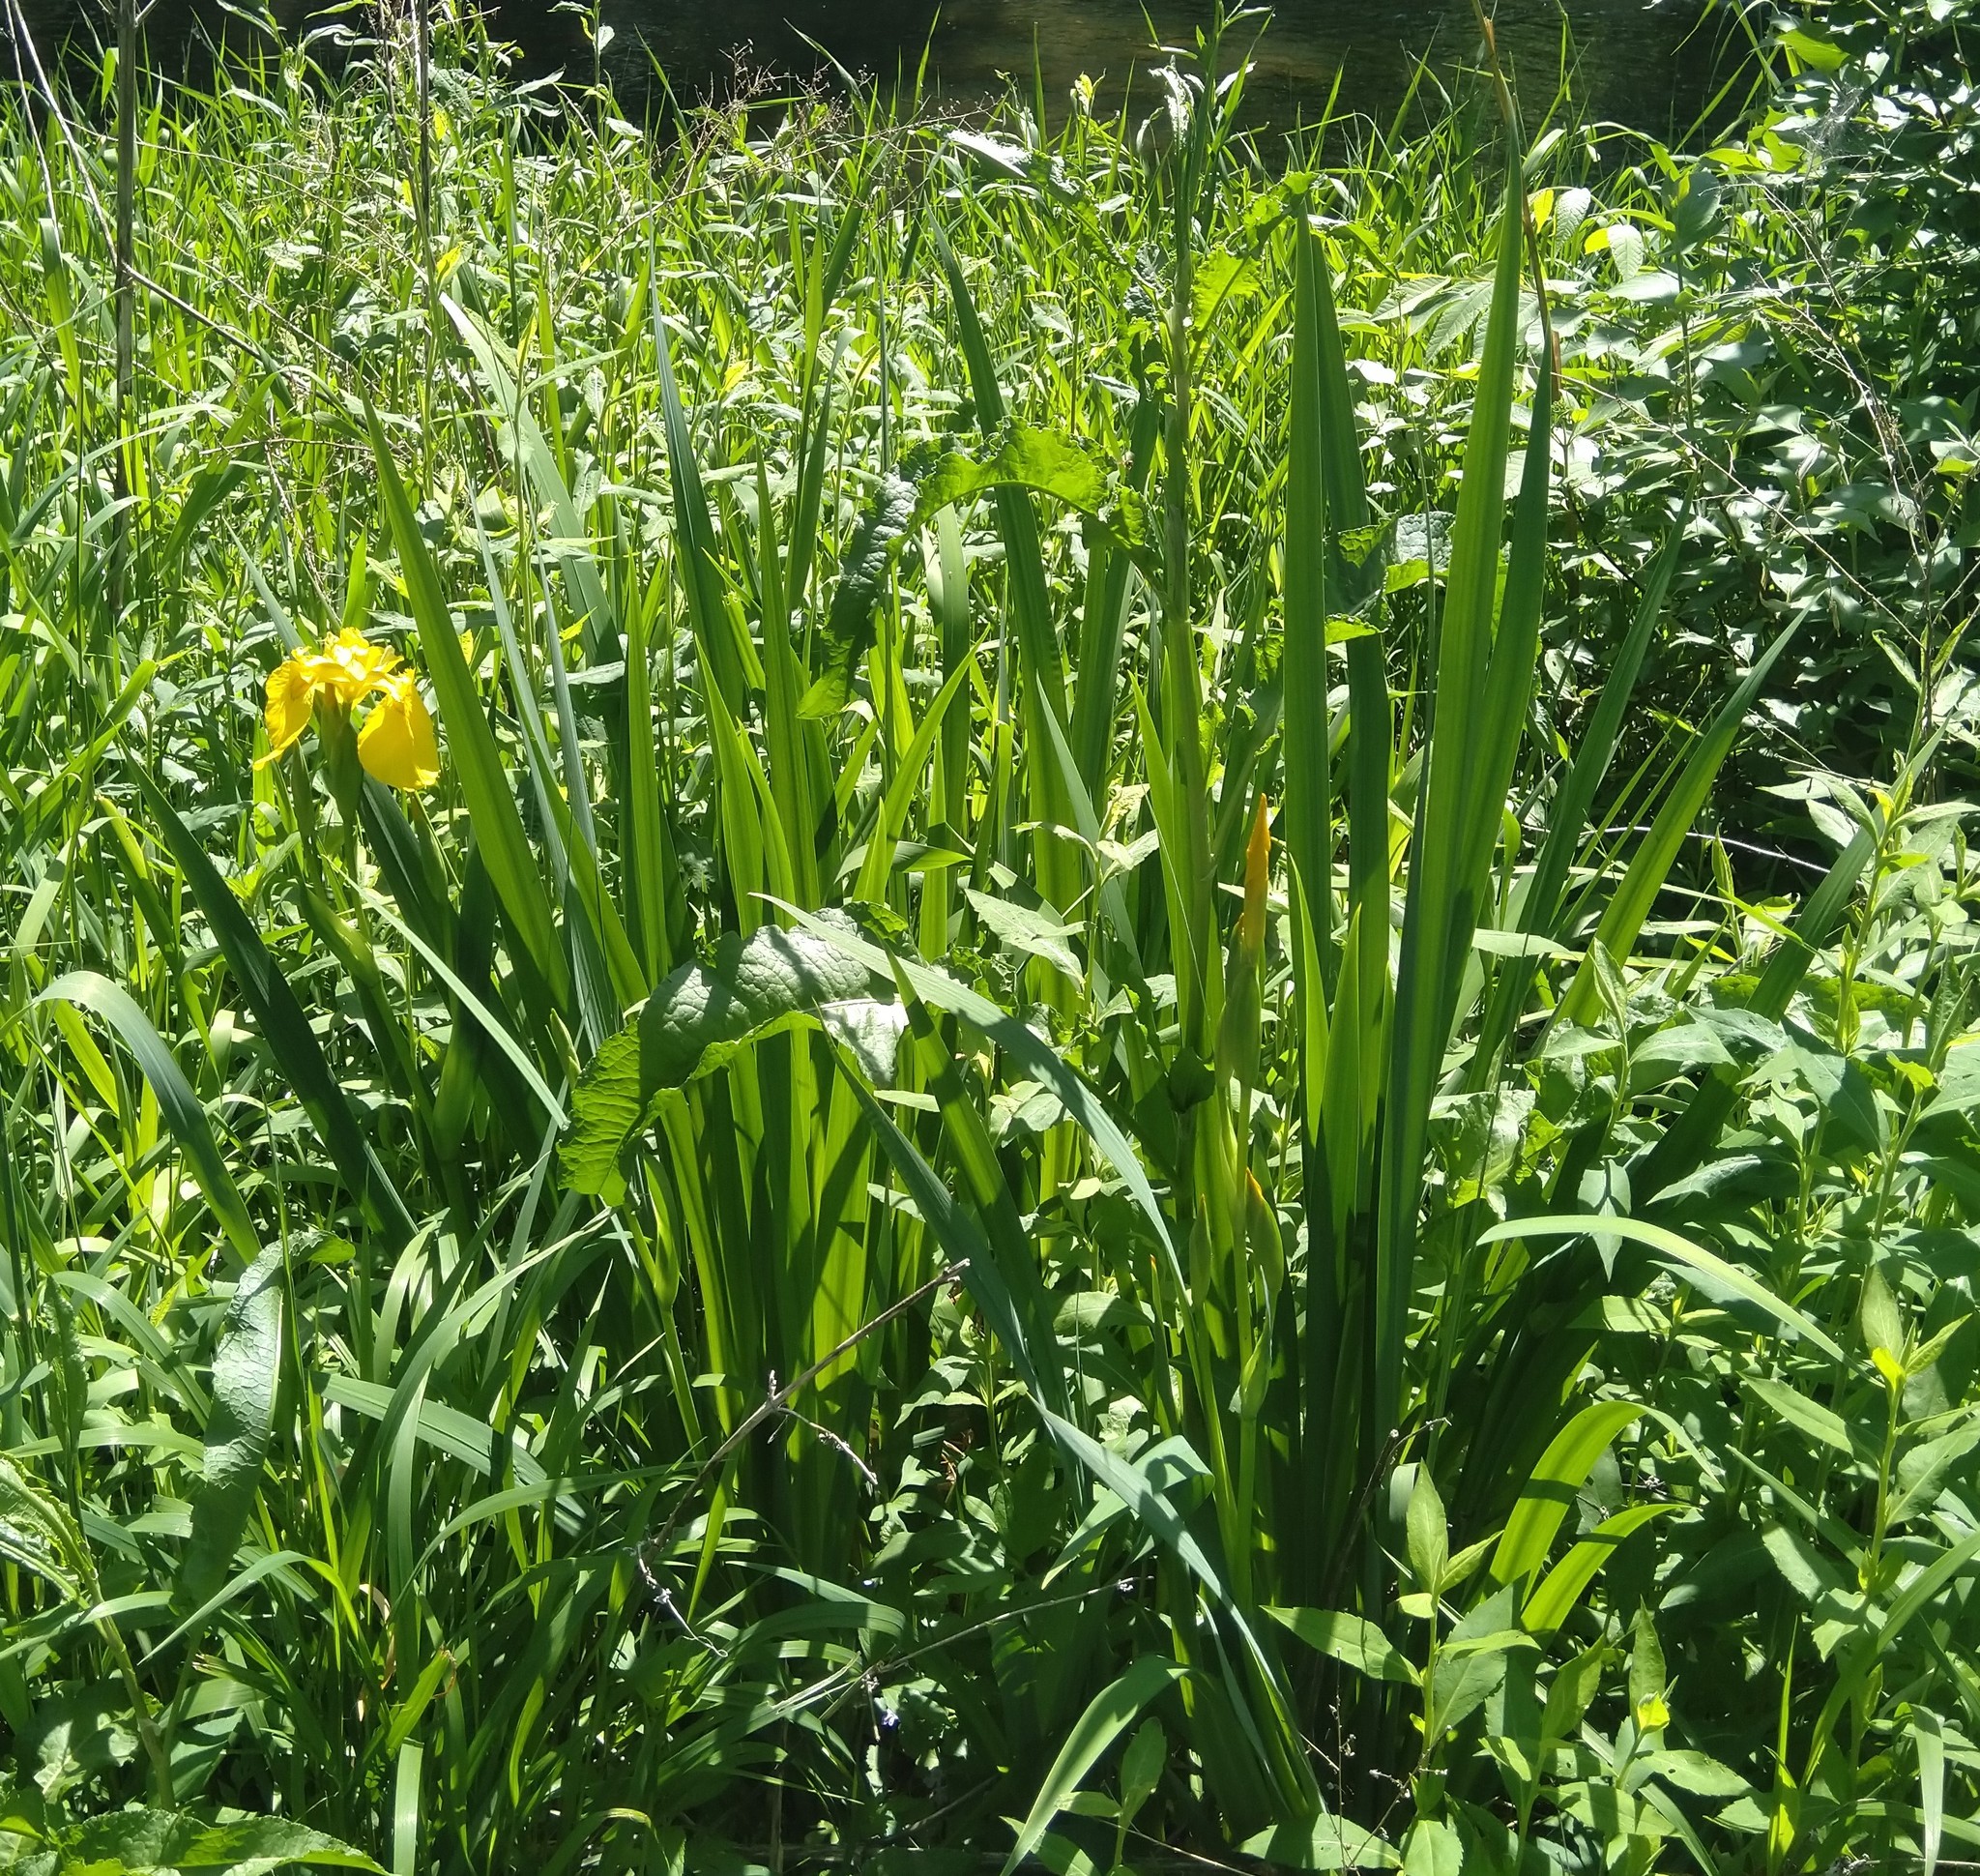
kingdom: Plantae
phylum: Tracheophyta
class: Liliopsida
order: Asparagales
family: Iridaceae
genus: Iris
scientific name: Iris pseudacorus
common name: Yellow flag
